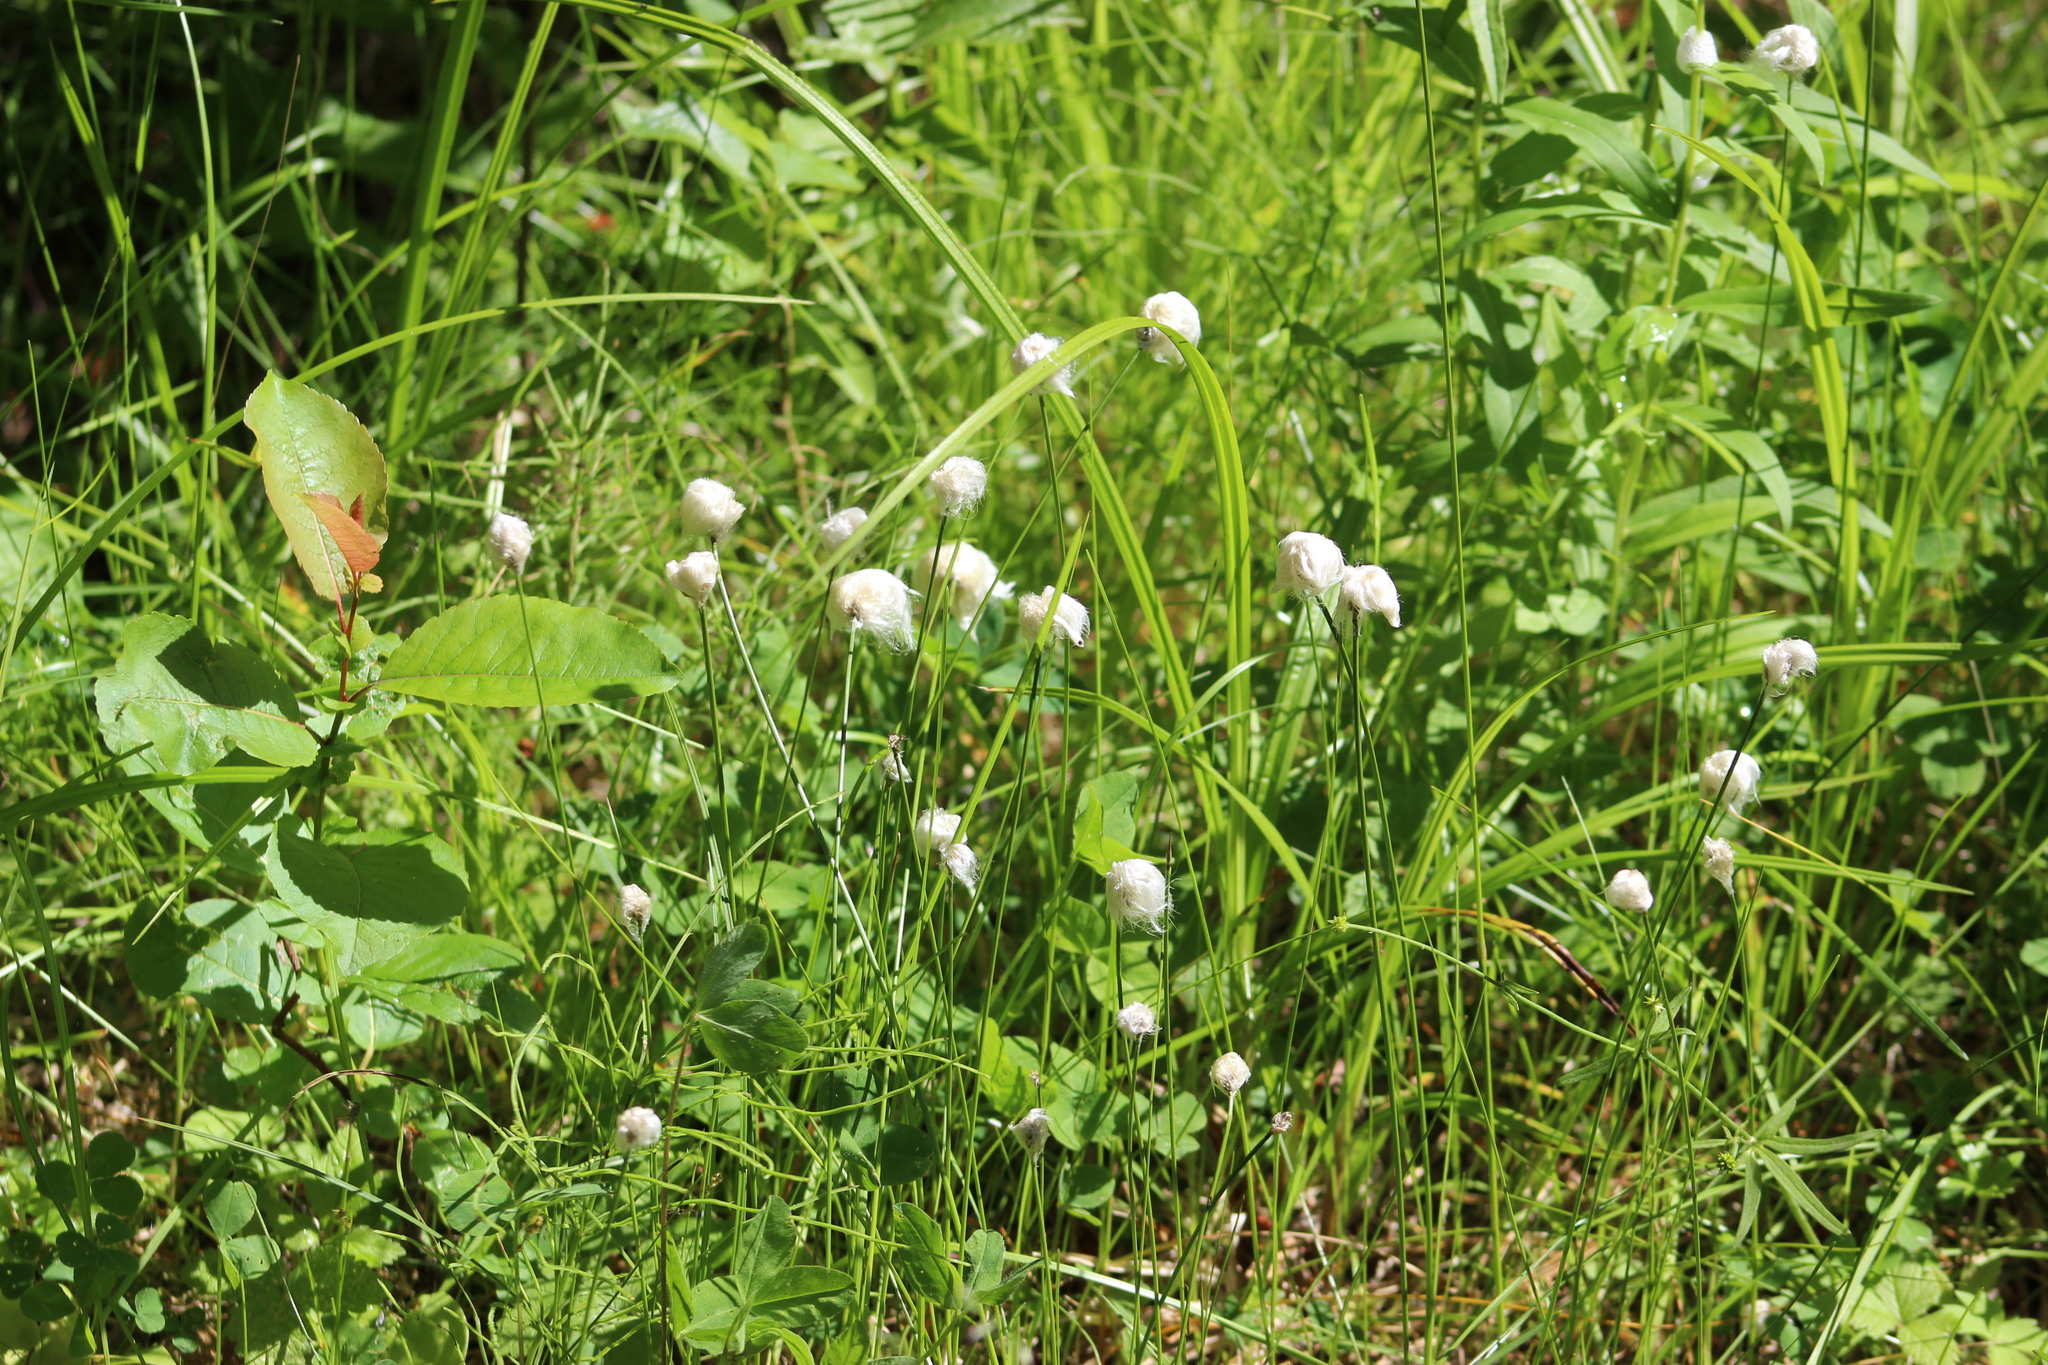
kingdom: Plantae
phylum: Tracheophyta
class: Liliopsida
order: Poales
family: Cyperaceae
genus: Eriophorum
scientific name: Eriophorum chamissonis
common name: Chamisso's cottongrass
